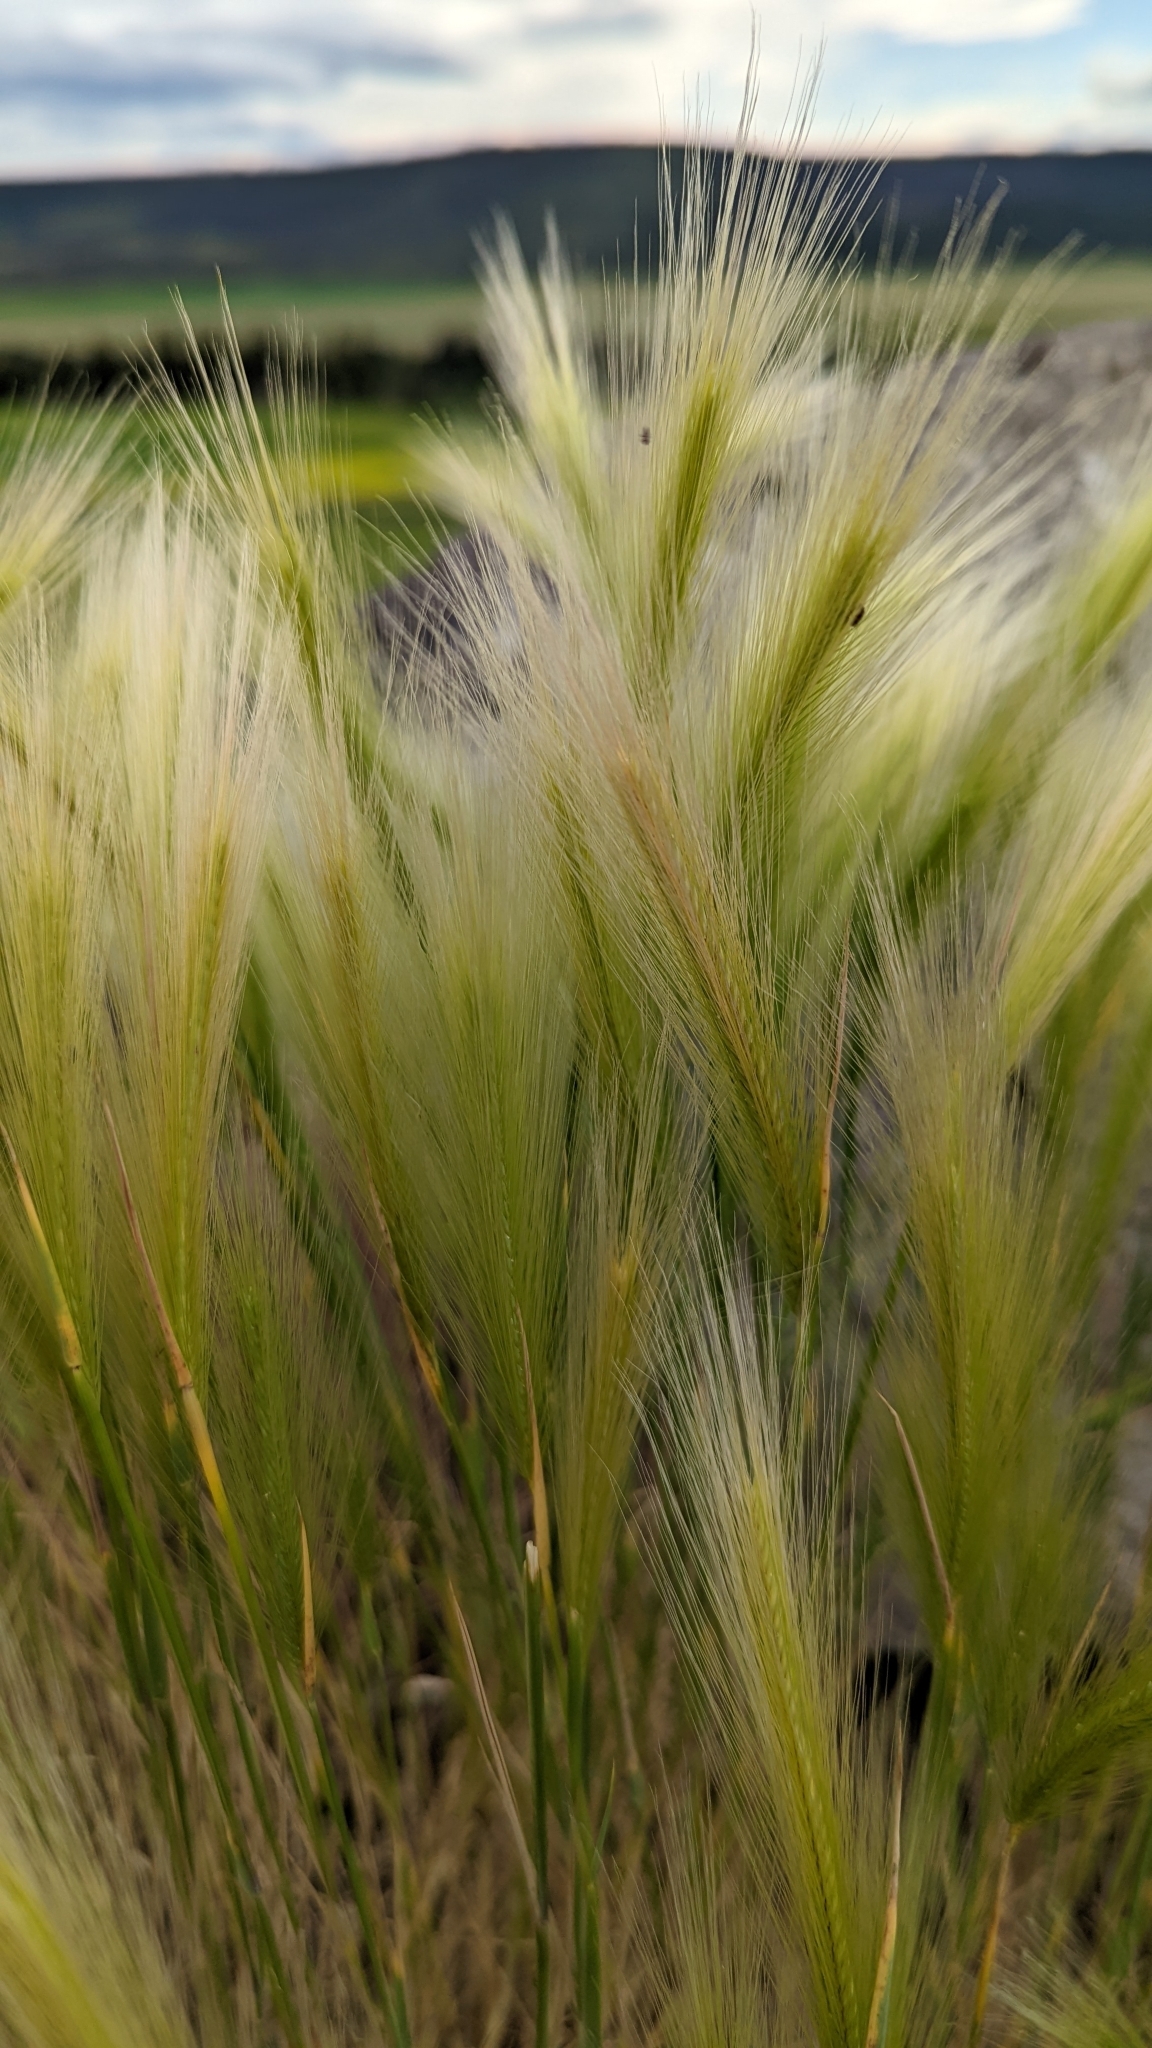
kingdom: Plantae
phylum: Tracheophyta
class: Liliopsida
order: Poales
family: Poaceae
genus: Hordeum
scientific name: Hordeum jubatum
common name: Foxtail barley
